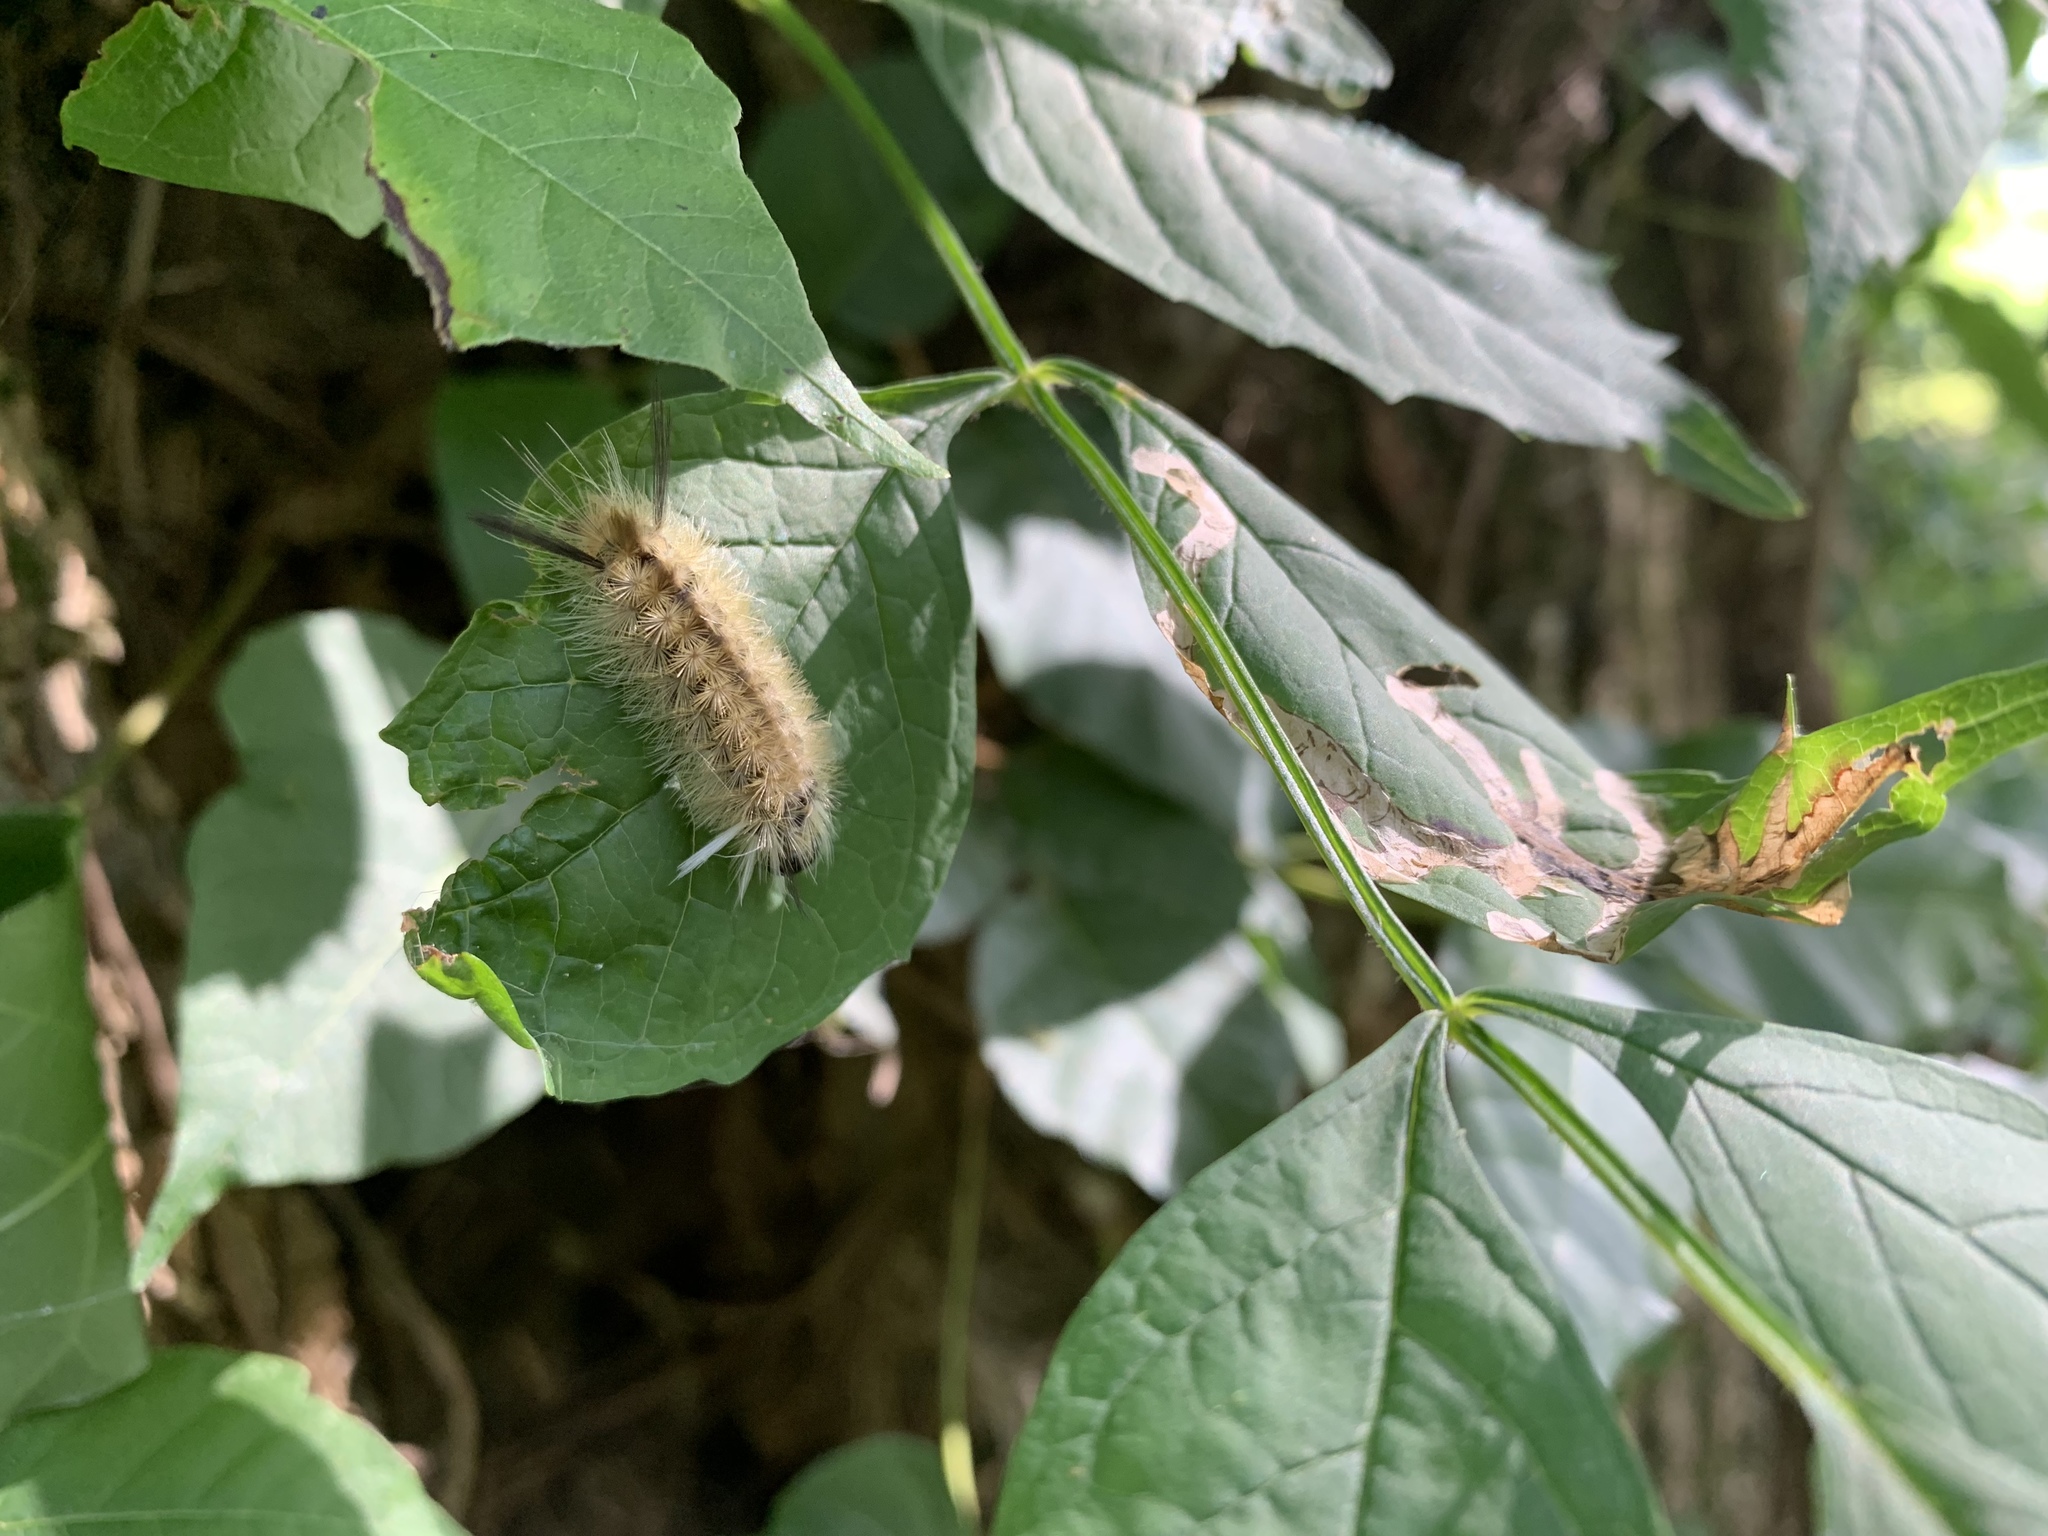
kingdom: Animalia
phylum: Arthropoda
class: Insecta
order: Lepidoptera
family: Erebidae
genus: Halysidota
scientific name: Halysidota tessellaris
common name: Banded tussock moth
